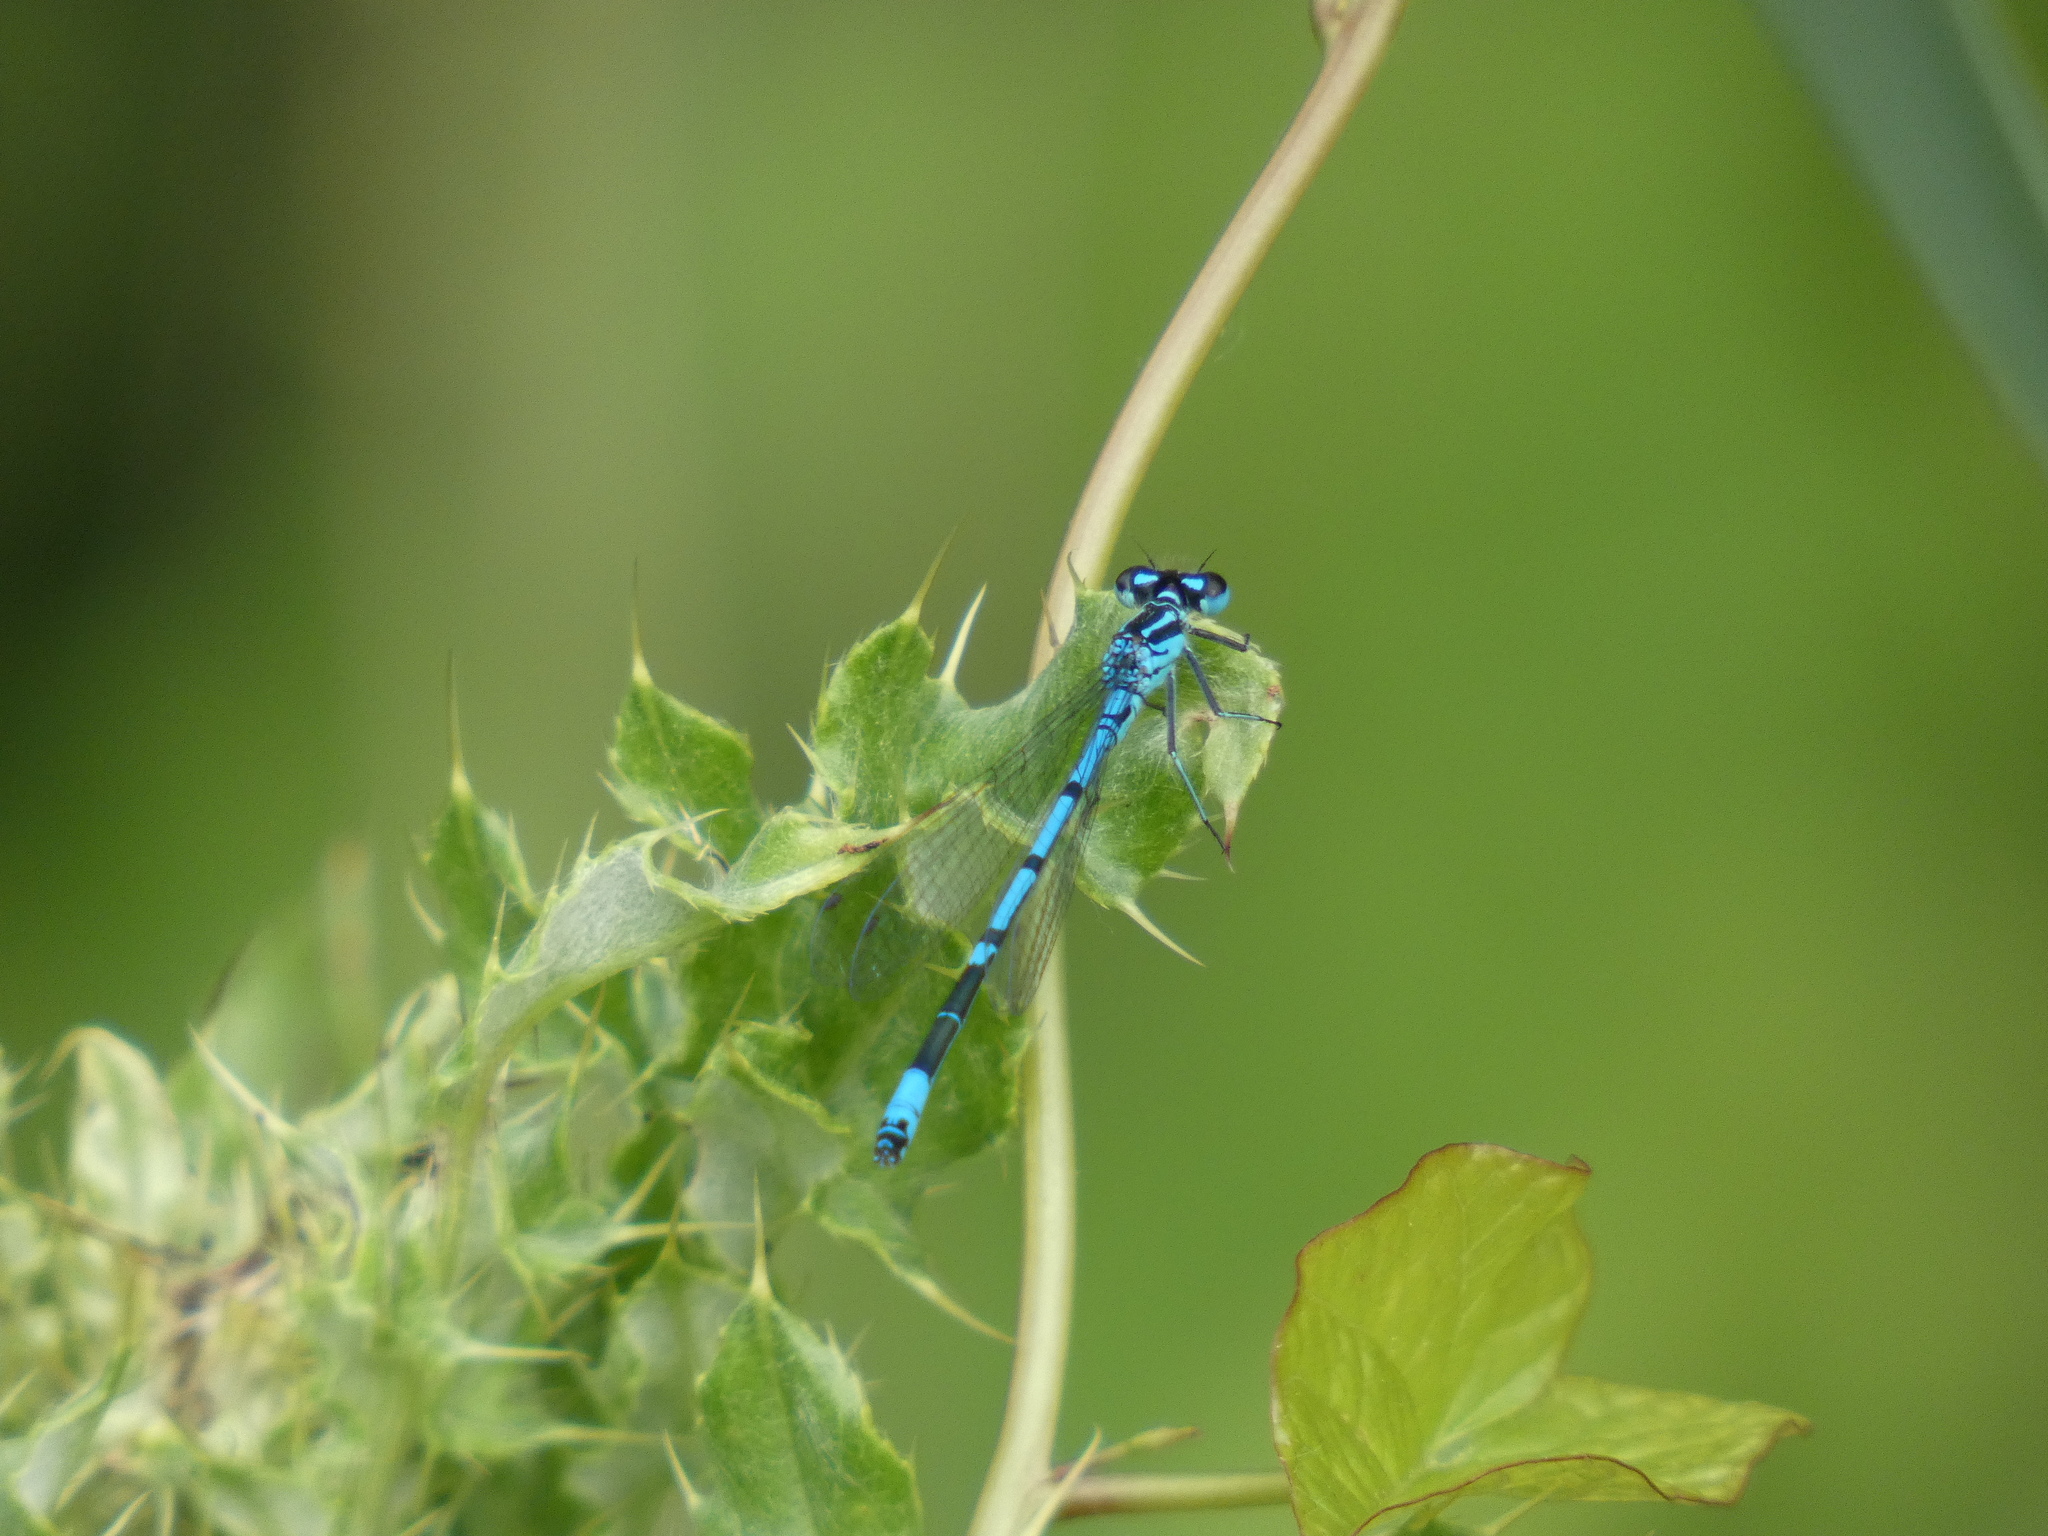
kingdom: Animalia
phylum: Arthropoda
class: Insecta
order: Odonata
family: Coenagrionidae
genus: Coenagrion
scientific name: Coenagrion scitulum
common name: Dainty bluet
